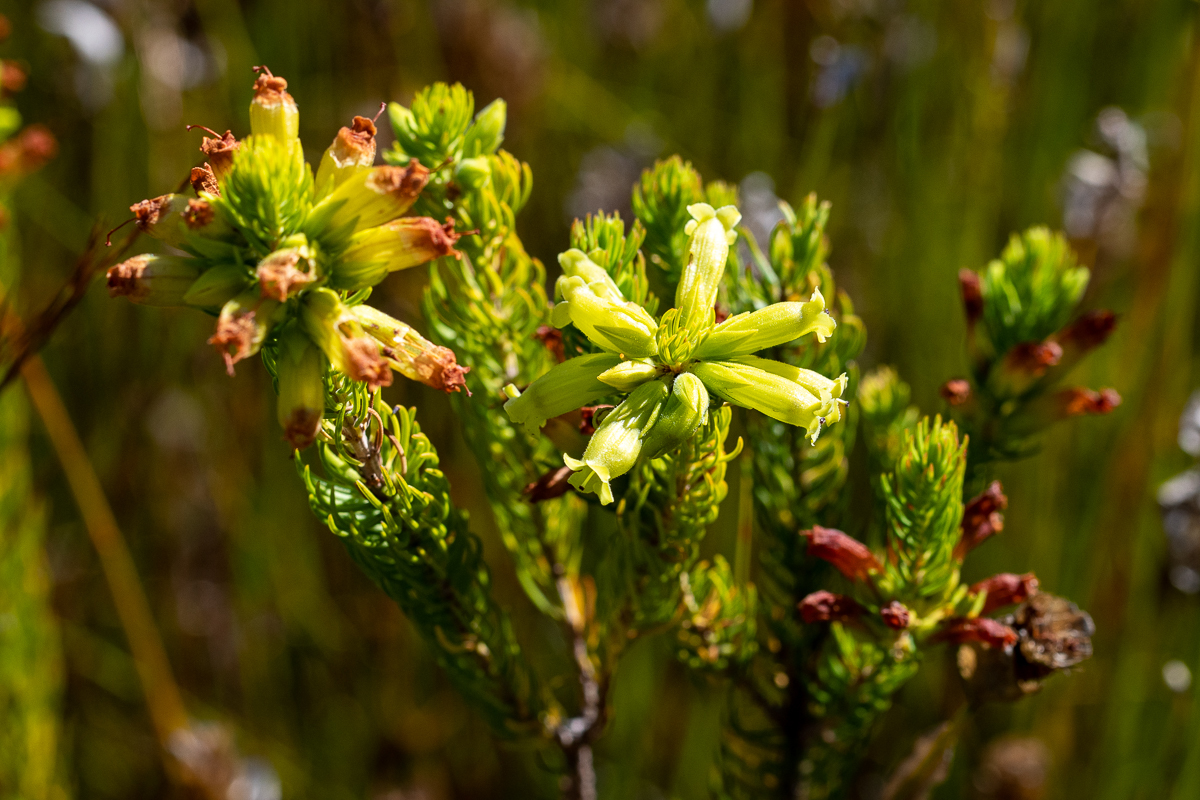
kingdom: Plantae
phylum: Tracheophyta
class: Magnoliopsida
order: Ericales
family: Ericaceae
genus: Erica
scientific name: Erica viscaria
